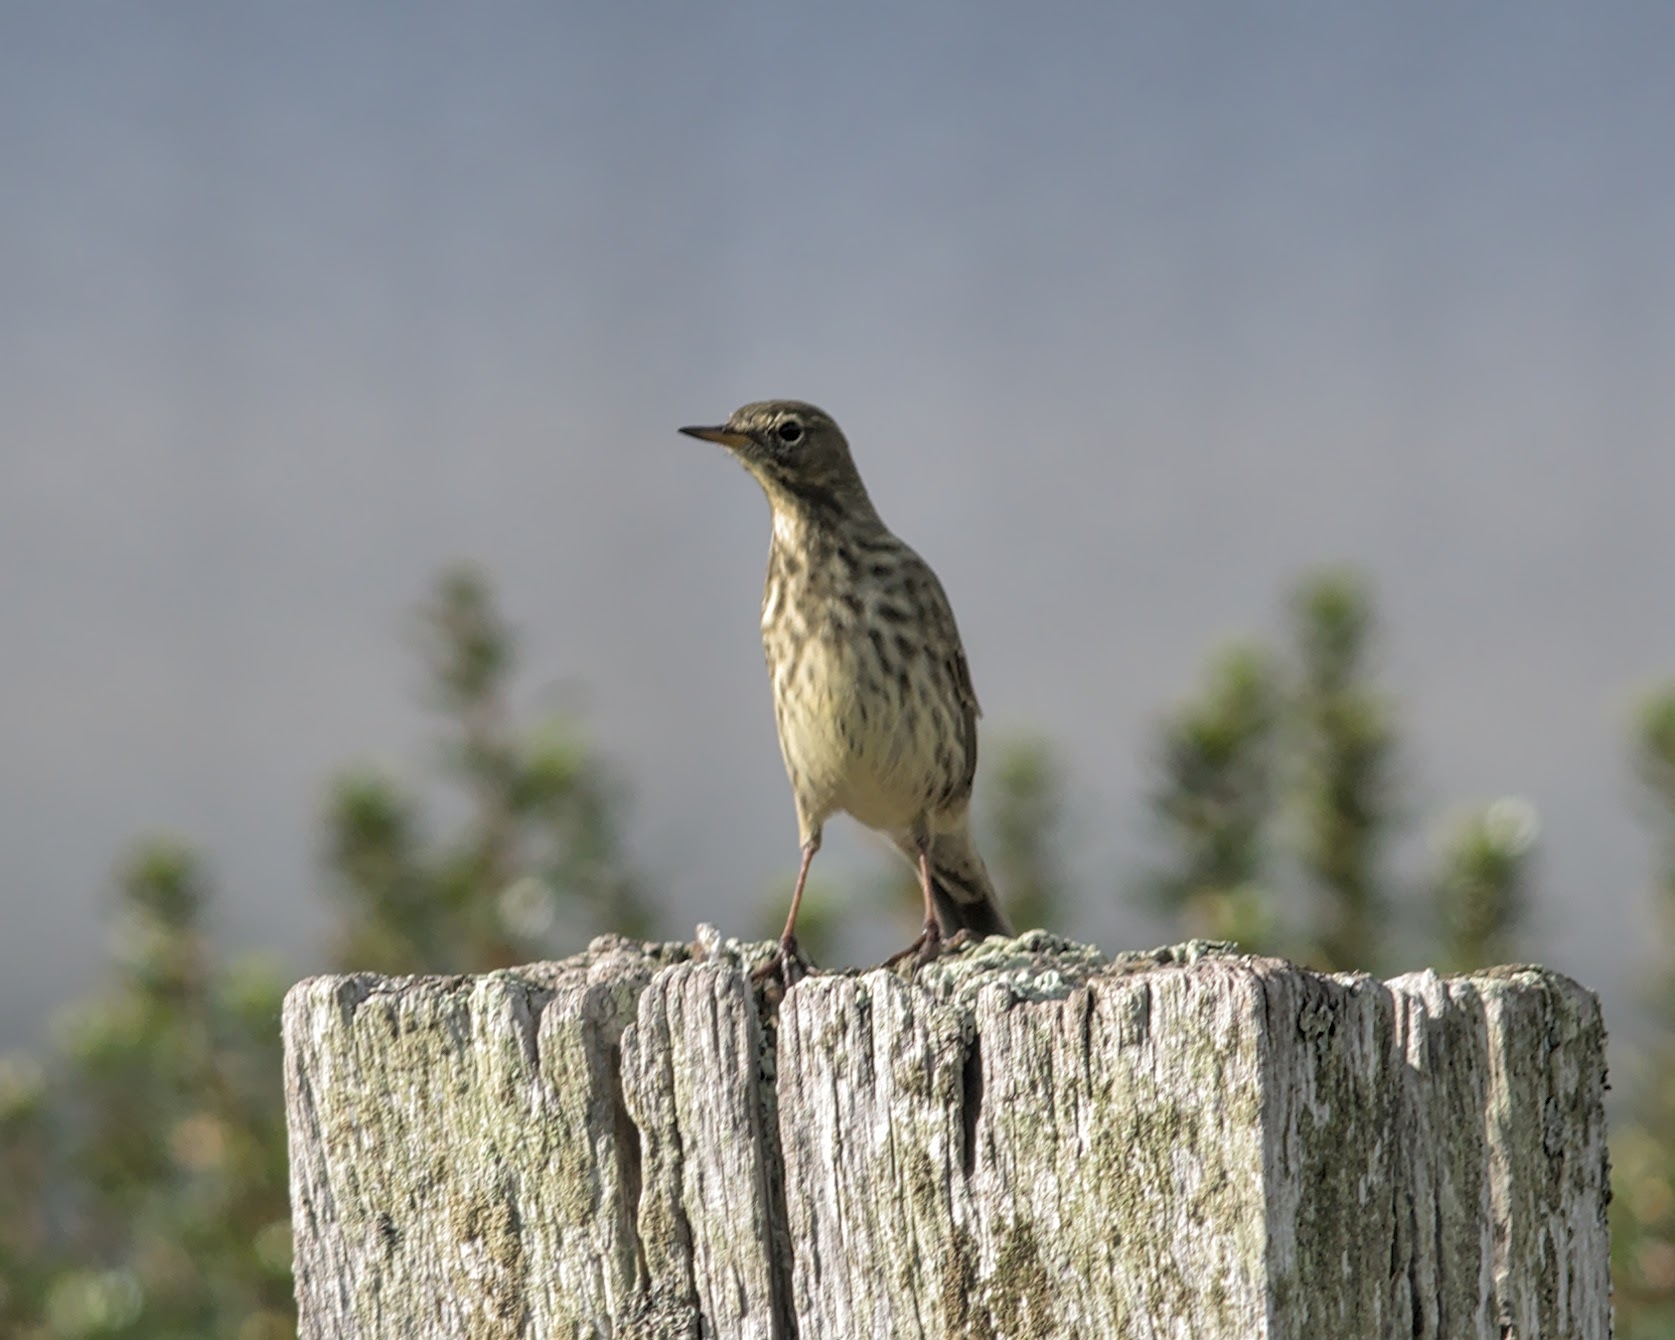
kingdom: Animalia
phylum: Chordata
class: Aves
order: Passeriformes
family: Motacillidae
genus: Anthus
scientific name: Anthus petrosus
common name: Eurasian rock pipit
